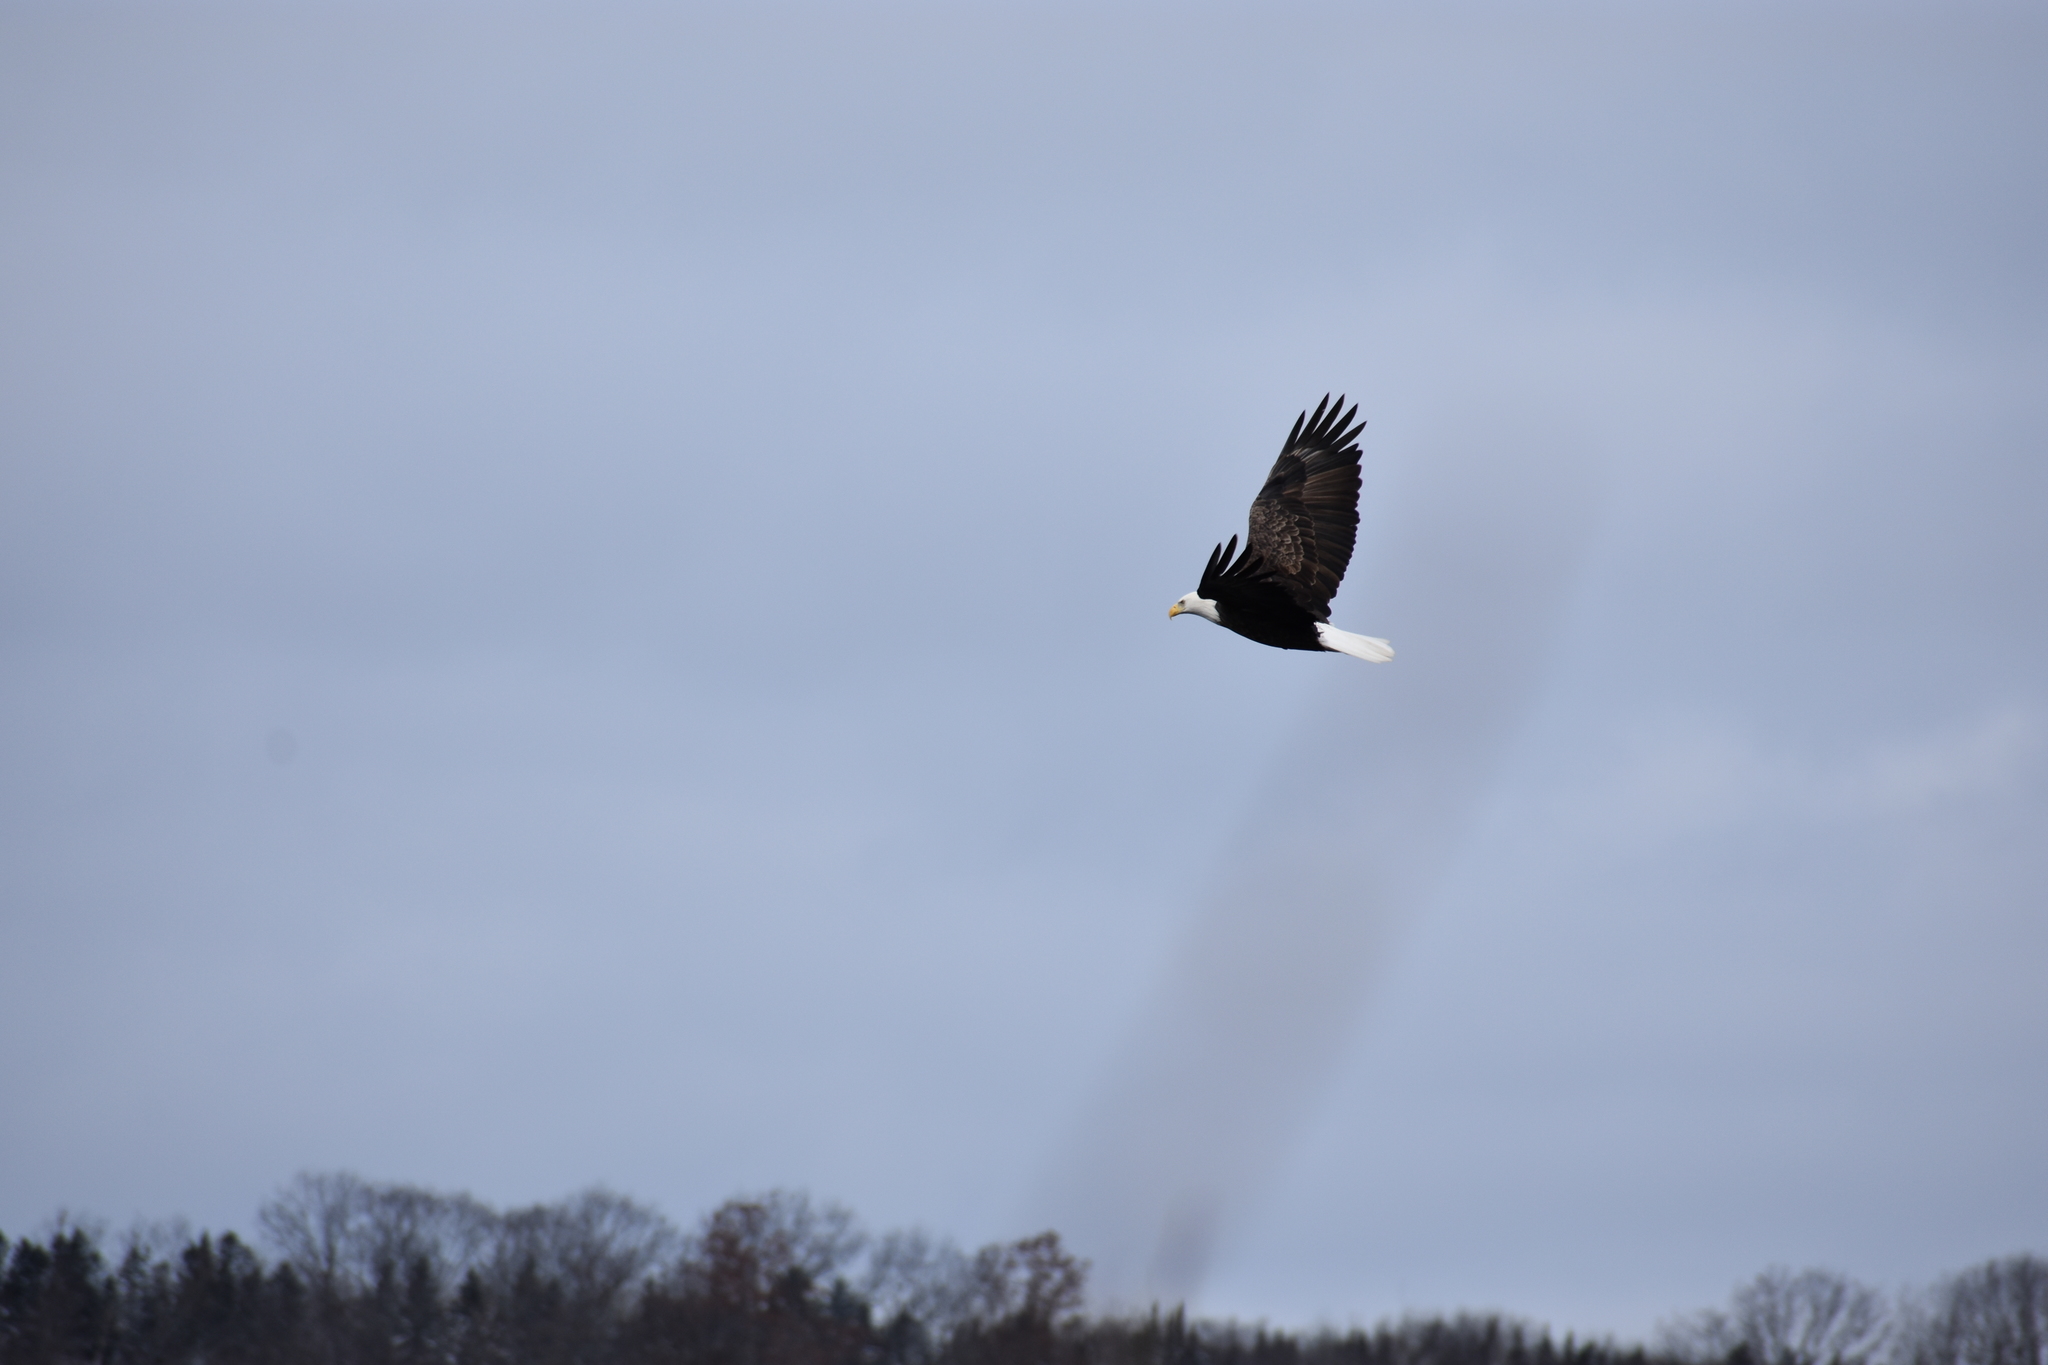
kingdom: Animalia
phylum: Chordata
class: Aves
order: Accipitriformes
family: Accipitridae
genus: Haliaeetus
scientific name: Haliaeetus leucocephalus
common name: Bald eagle
